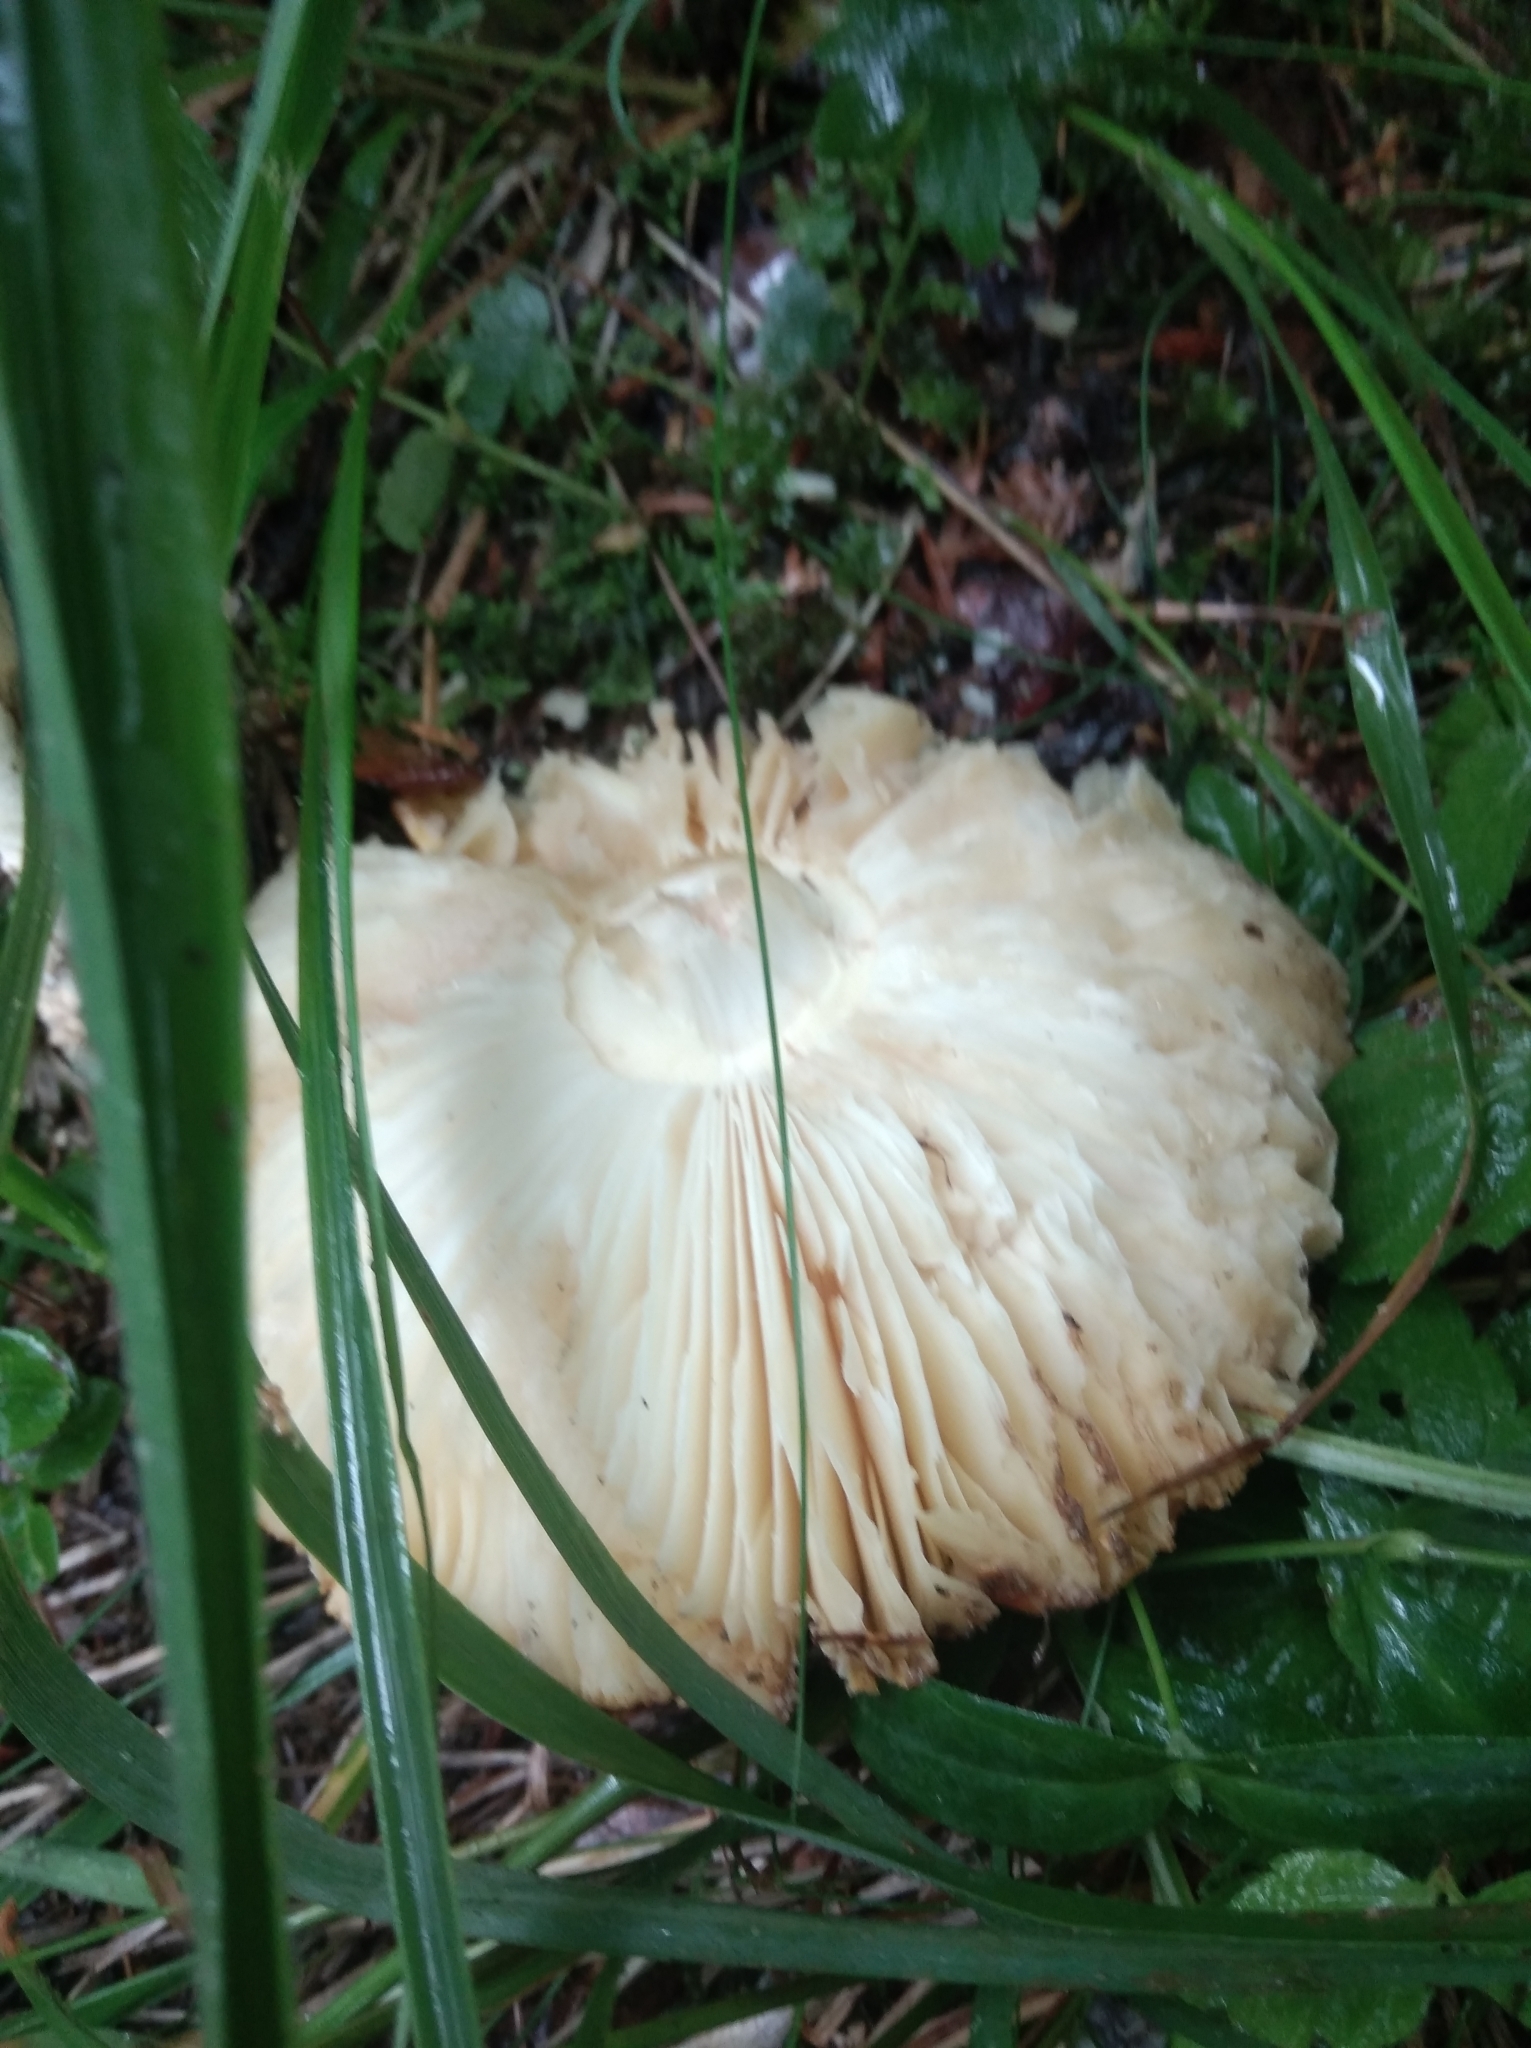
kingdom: Fungi
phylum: Basidiomycota
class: Agaricomycetes
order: Agaricales
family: Amanitaceae
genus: Amanita
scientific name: Amanita muscaria
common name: Fly agaric
